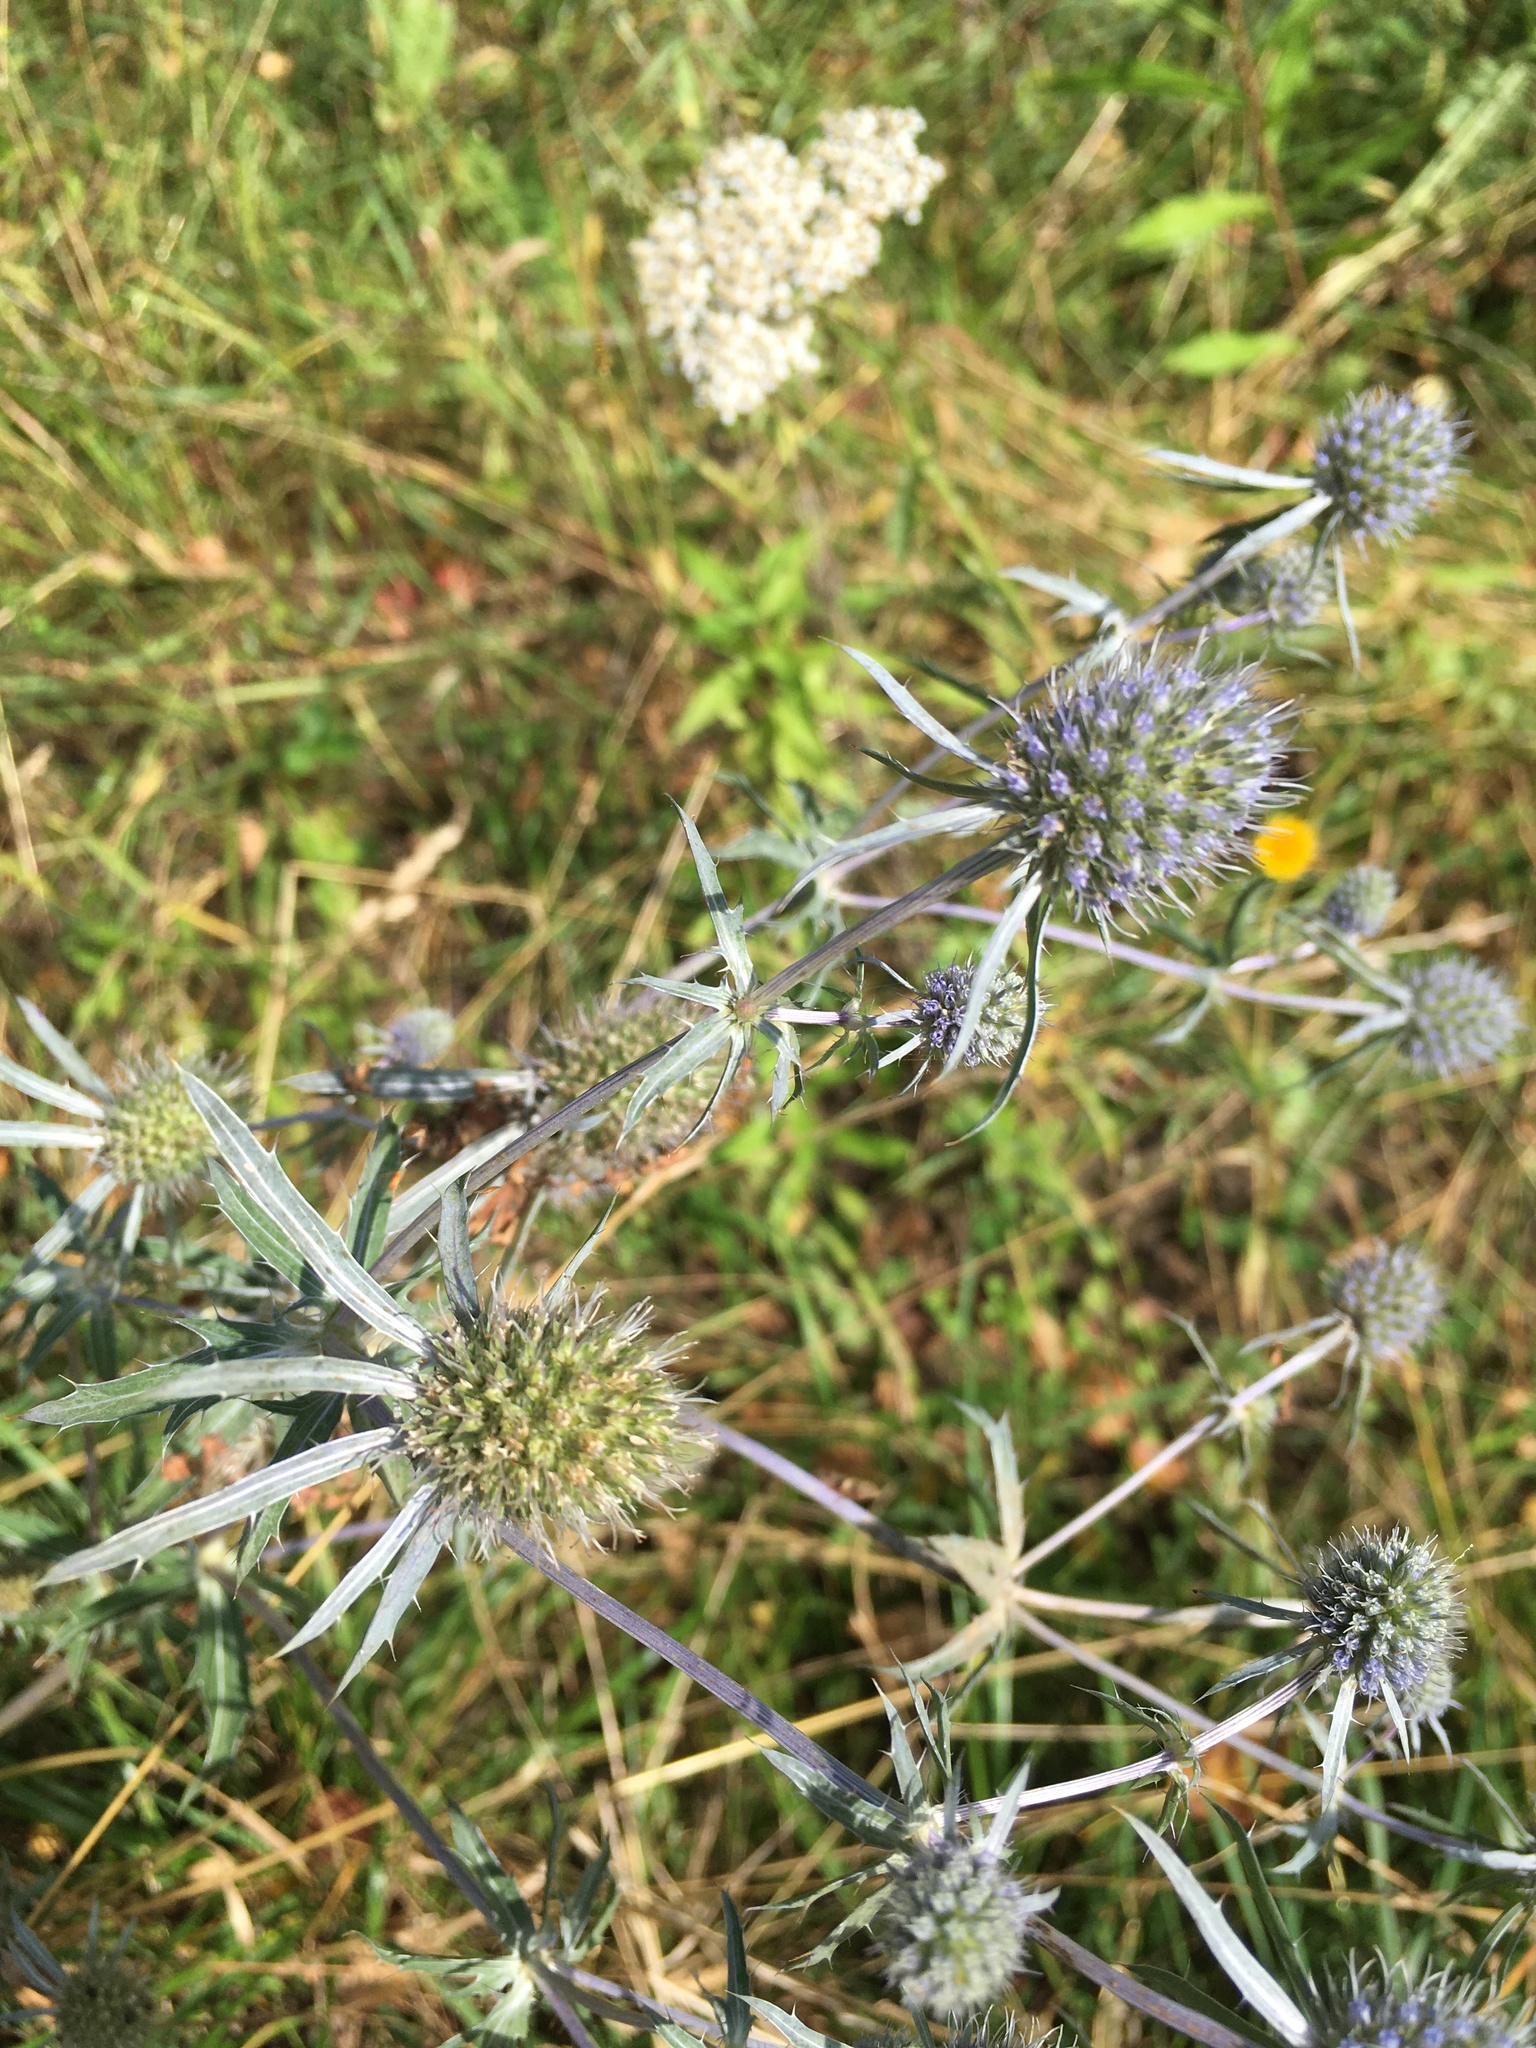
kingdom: Plantae
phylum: Tracheophyta
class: Magnoliopsida
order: Apiales
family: Apiaceae
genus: Eryngium
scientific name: Eryngium planum
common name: Blue eryngo
